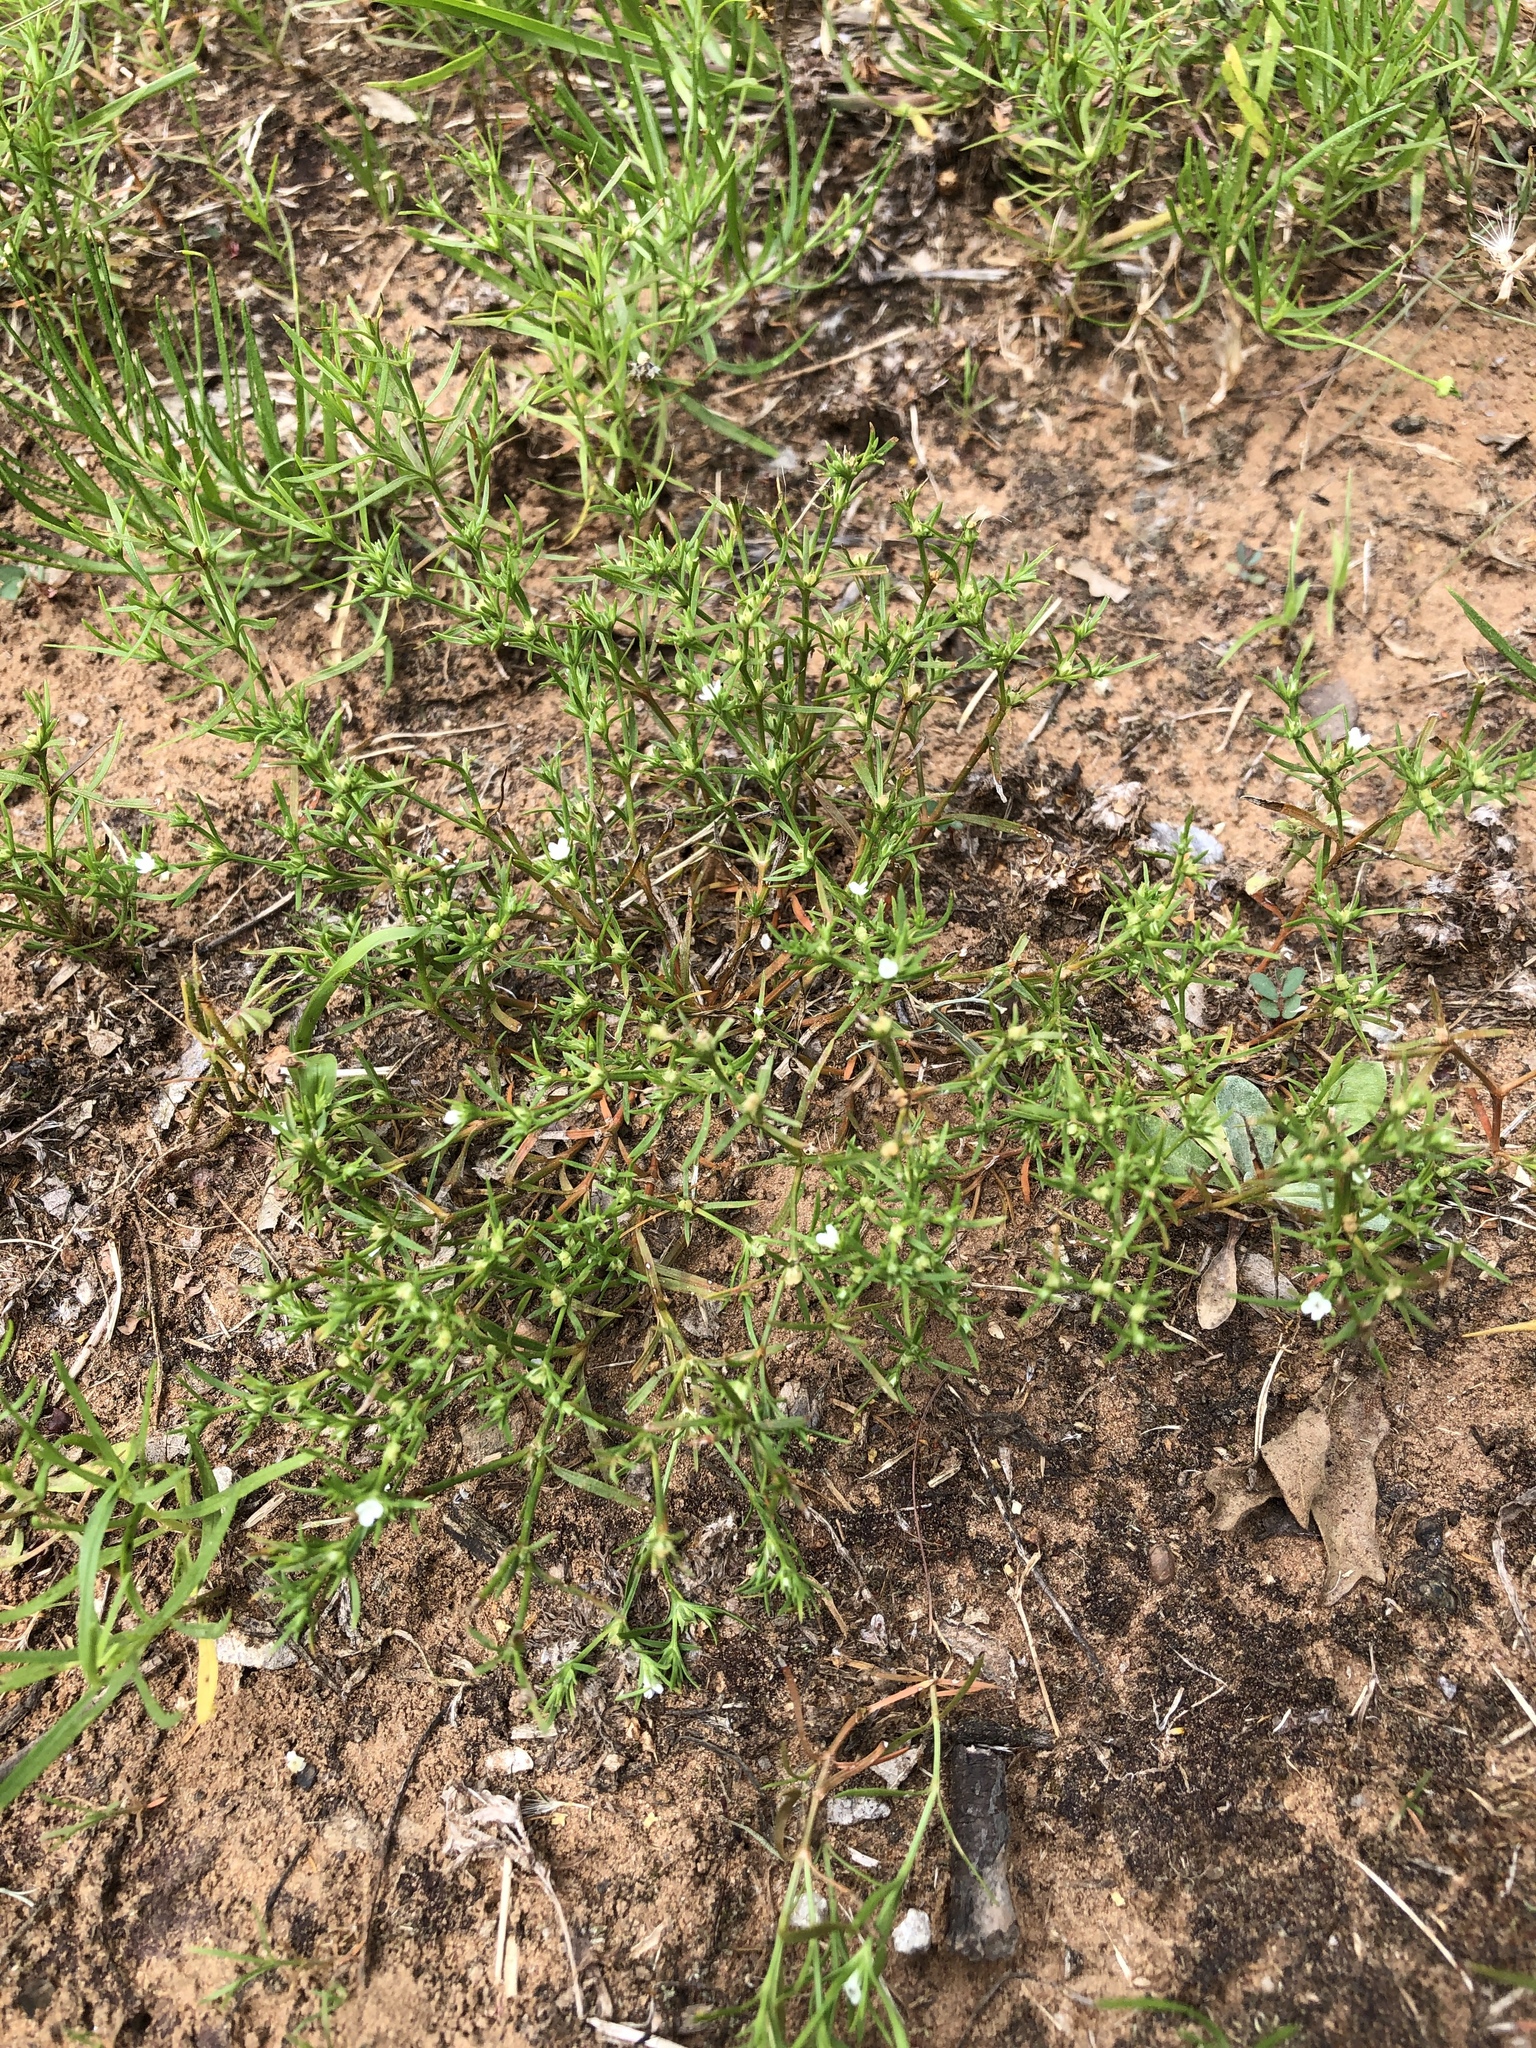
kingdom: Plantae
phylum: Tracheophyta
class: Magnoliopsida
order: Lamiales
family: Tetrachondraceae
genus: Polypremum
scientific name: Polypremum procumbens
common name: Juniper-leaf
